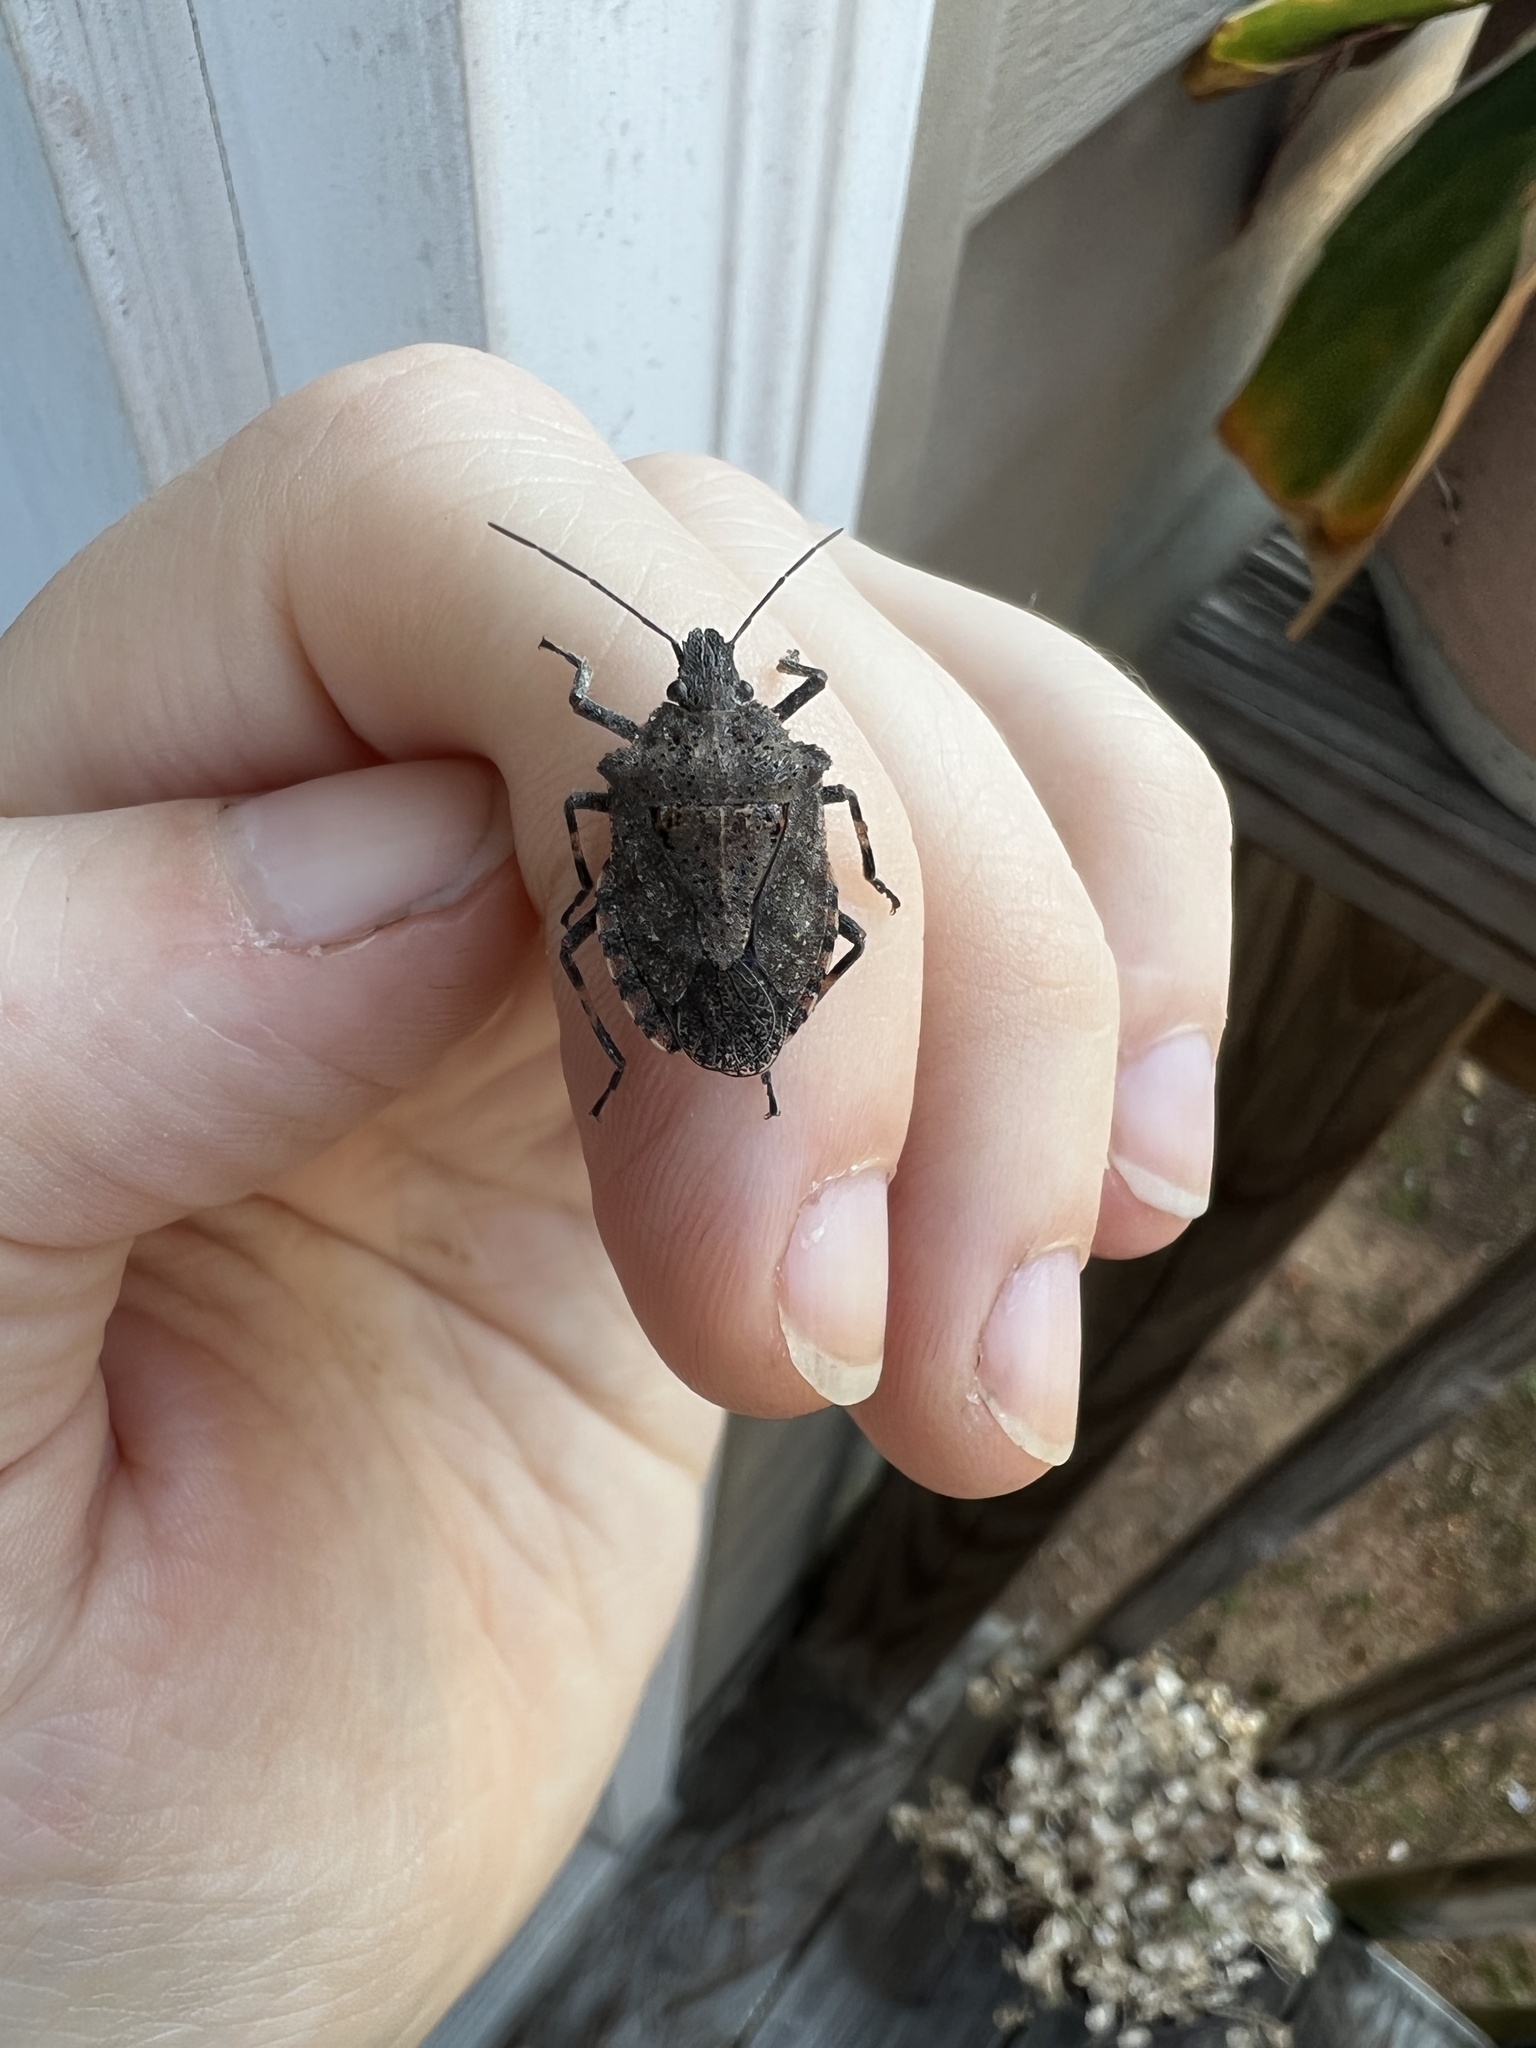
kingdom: Animalia
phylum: Arthropoda
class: Insecta
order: Hemiptera
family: Pentatomidae
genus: Brochymena
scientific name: Brochymena
